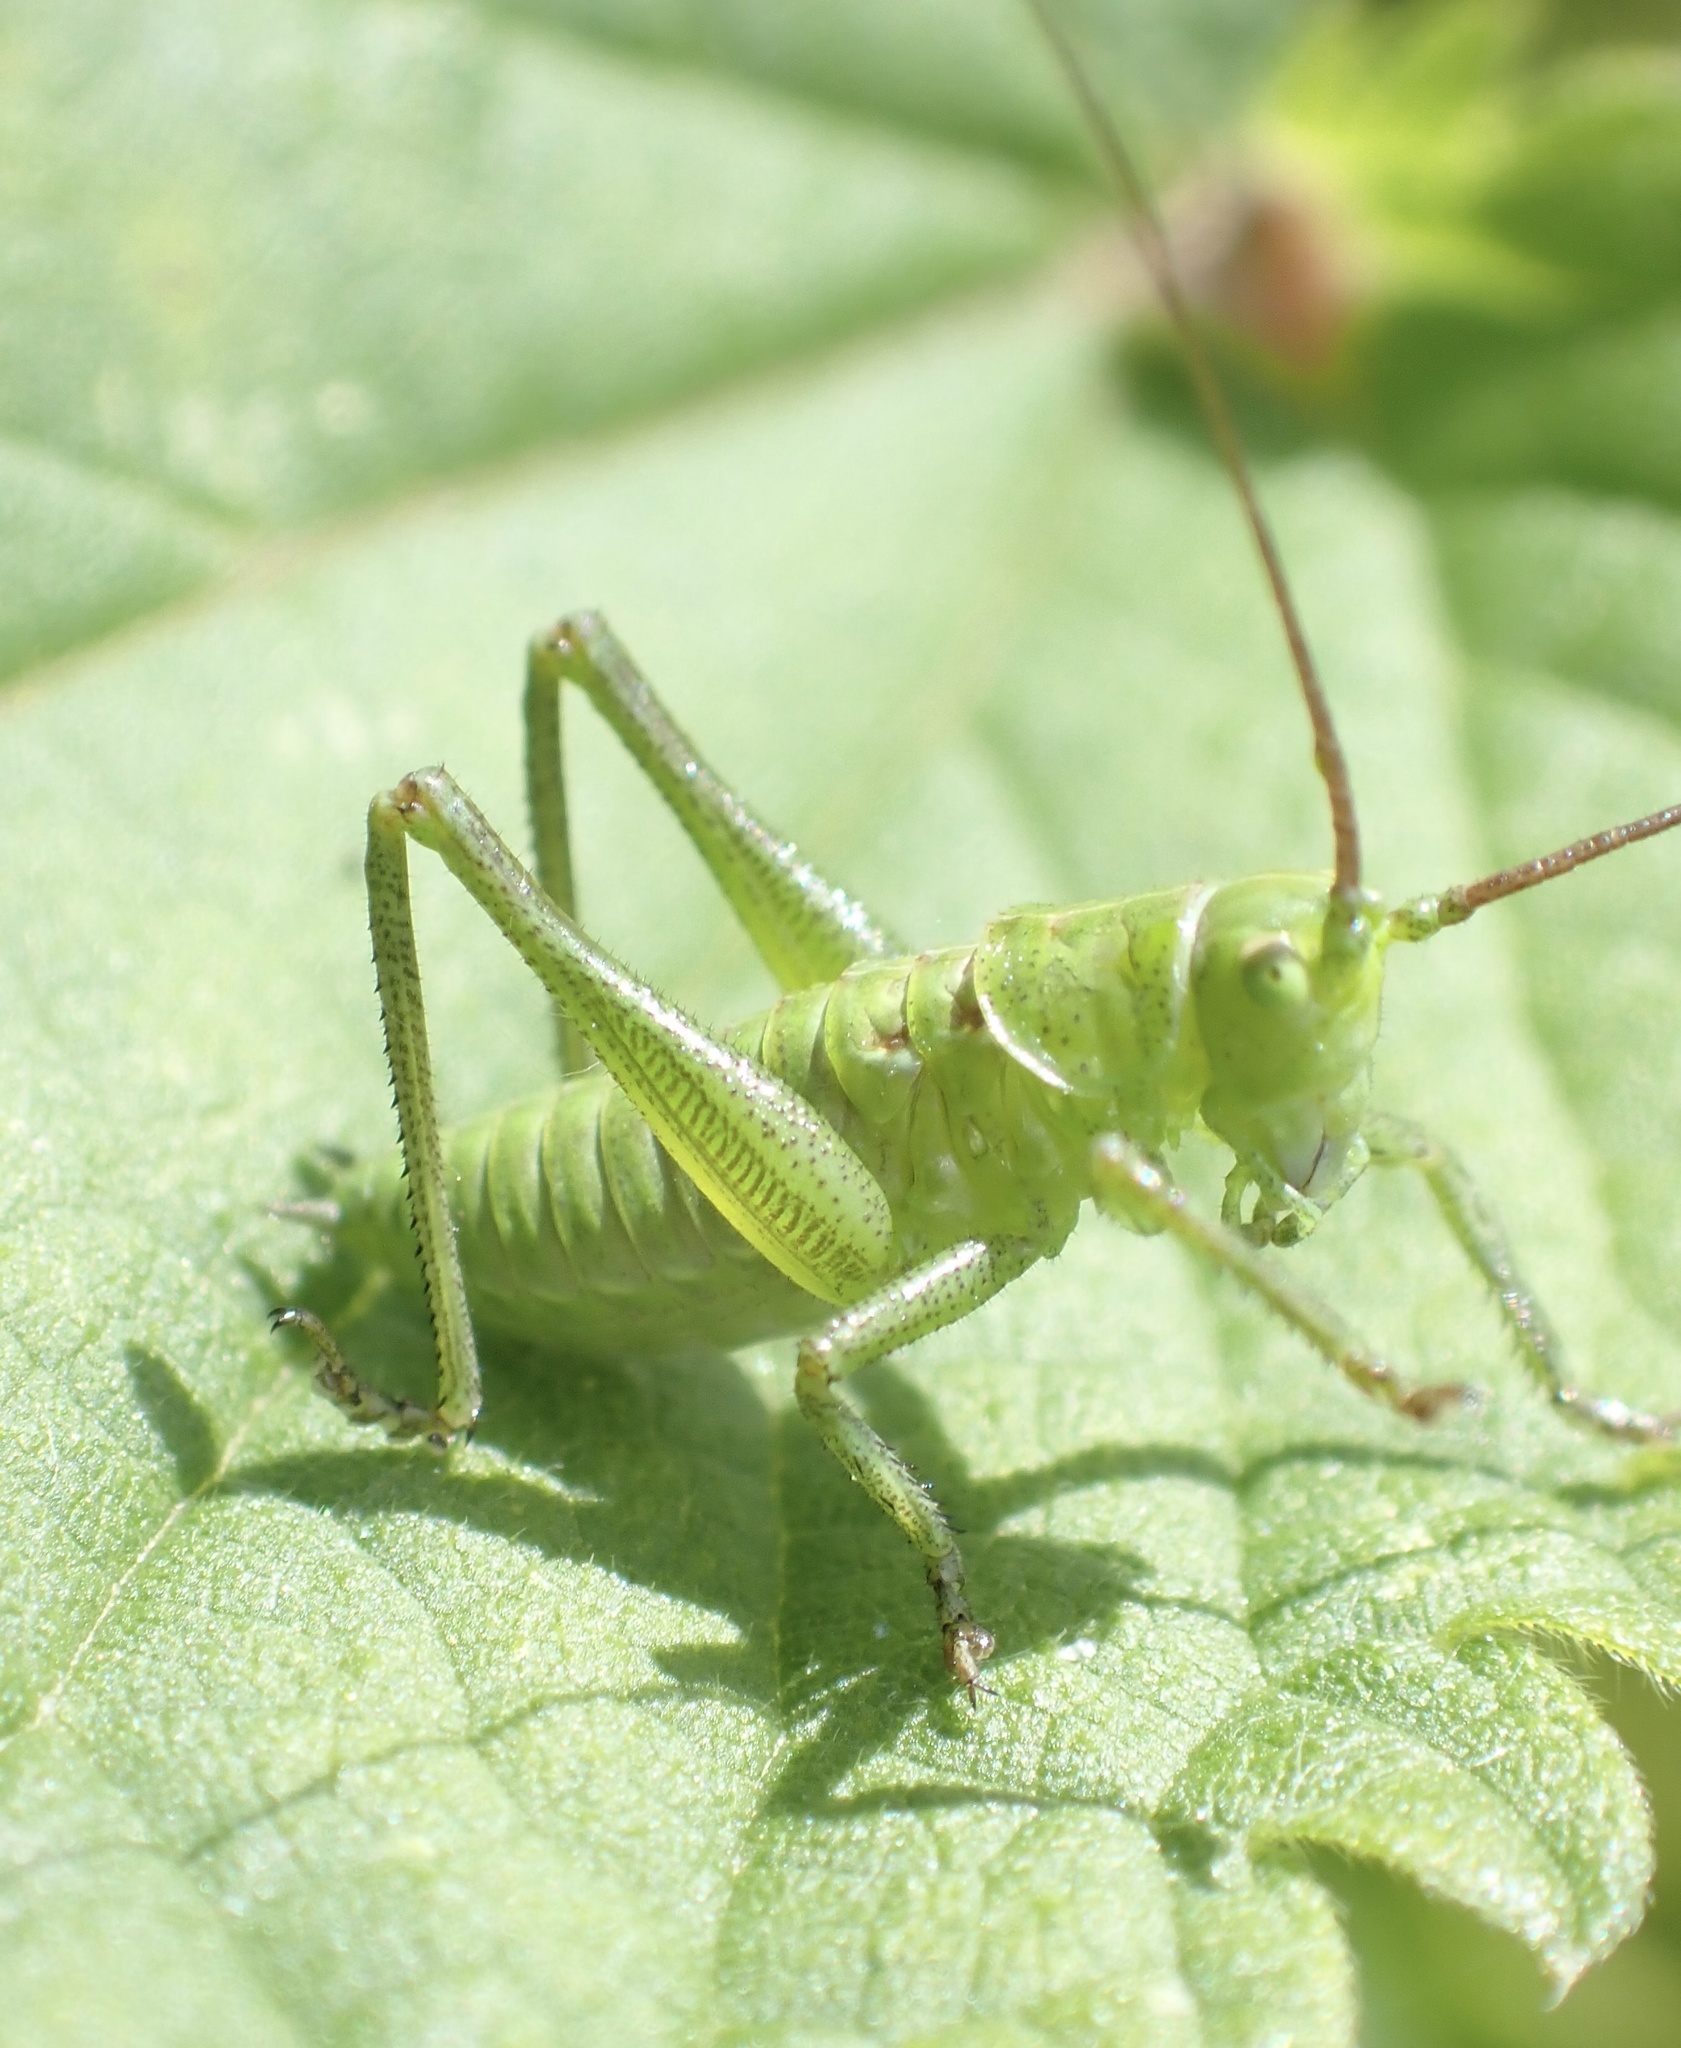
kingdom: Animalia
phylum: Arthropoda
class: Insecta
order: Orthoptera
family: Tettigoniidae
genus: Tettigonia
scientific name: Tettigonia viridissima
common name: Great green bush-cricket
